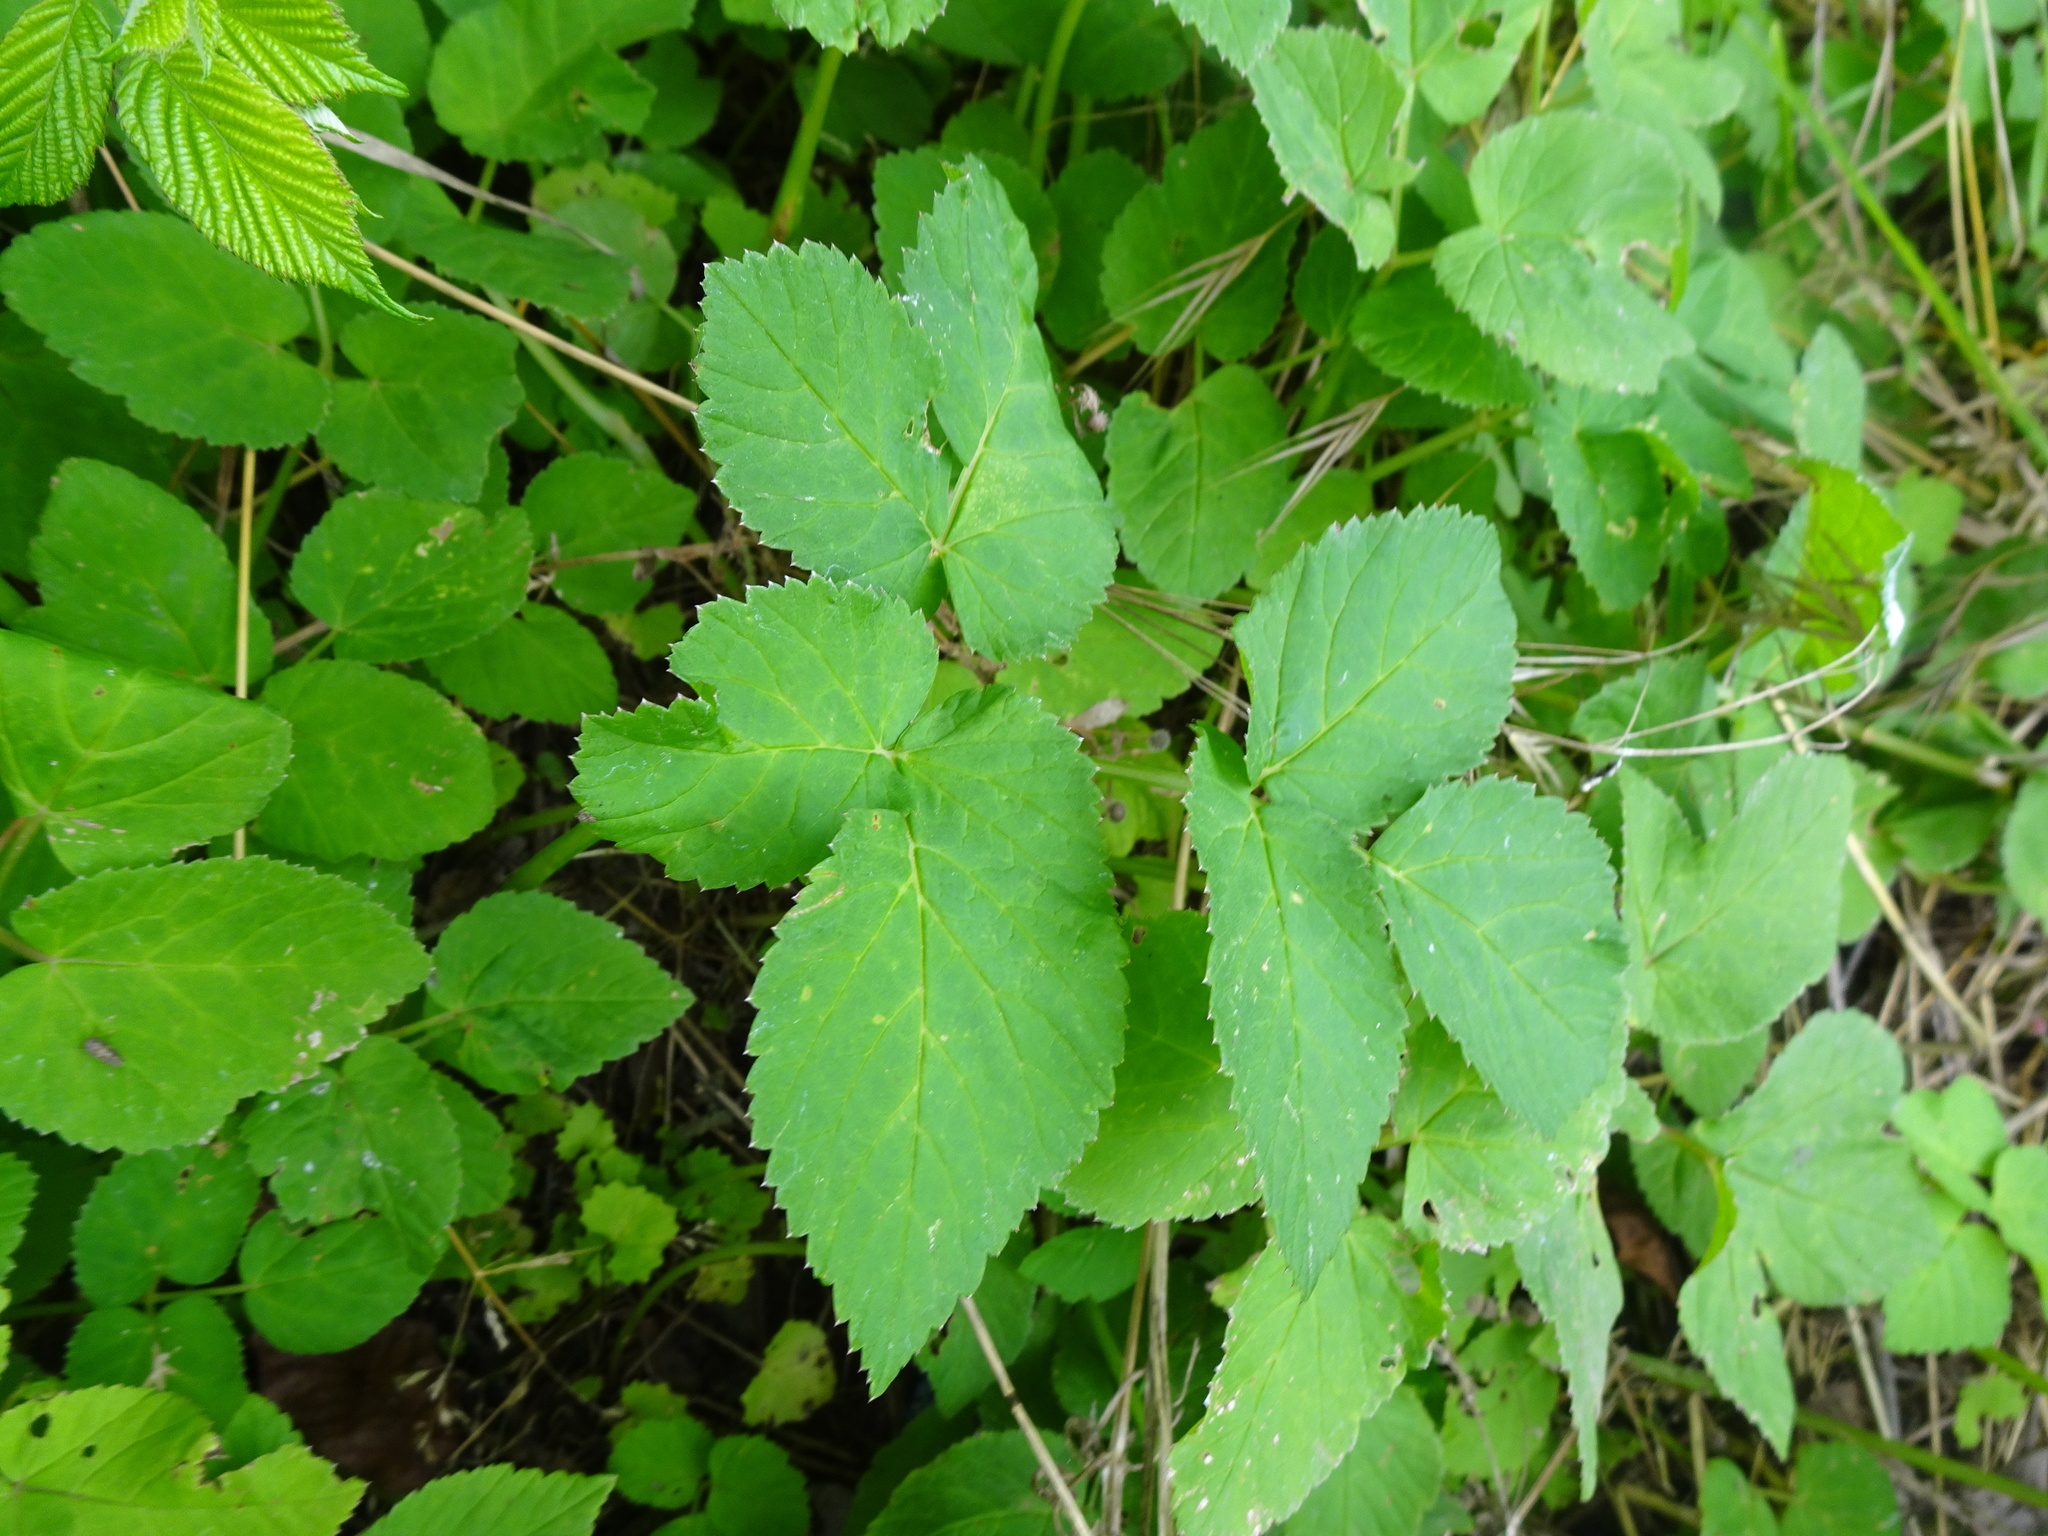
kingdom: Plantae
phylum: Tracheophyta
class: Magnoliopsida
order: Apiales
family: Apiaceae
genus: Aegopodium
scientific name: Aegopodium podagraria
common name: Ground-elder
